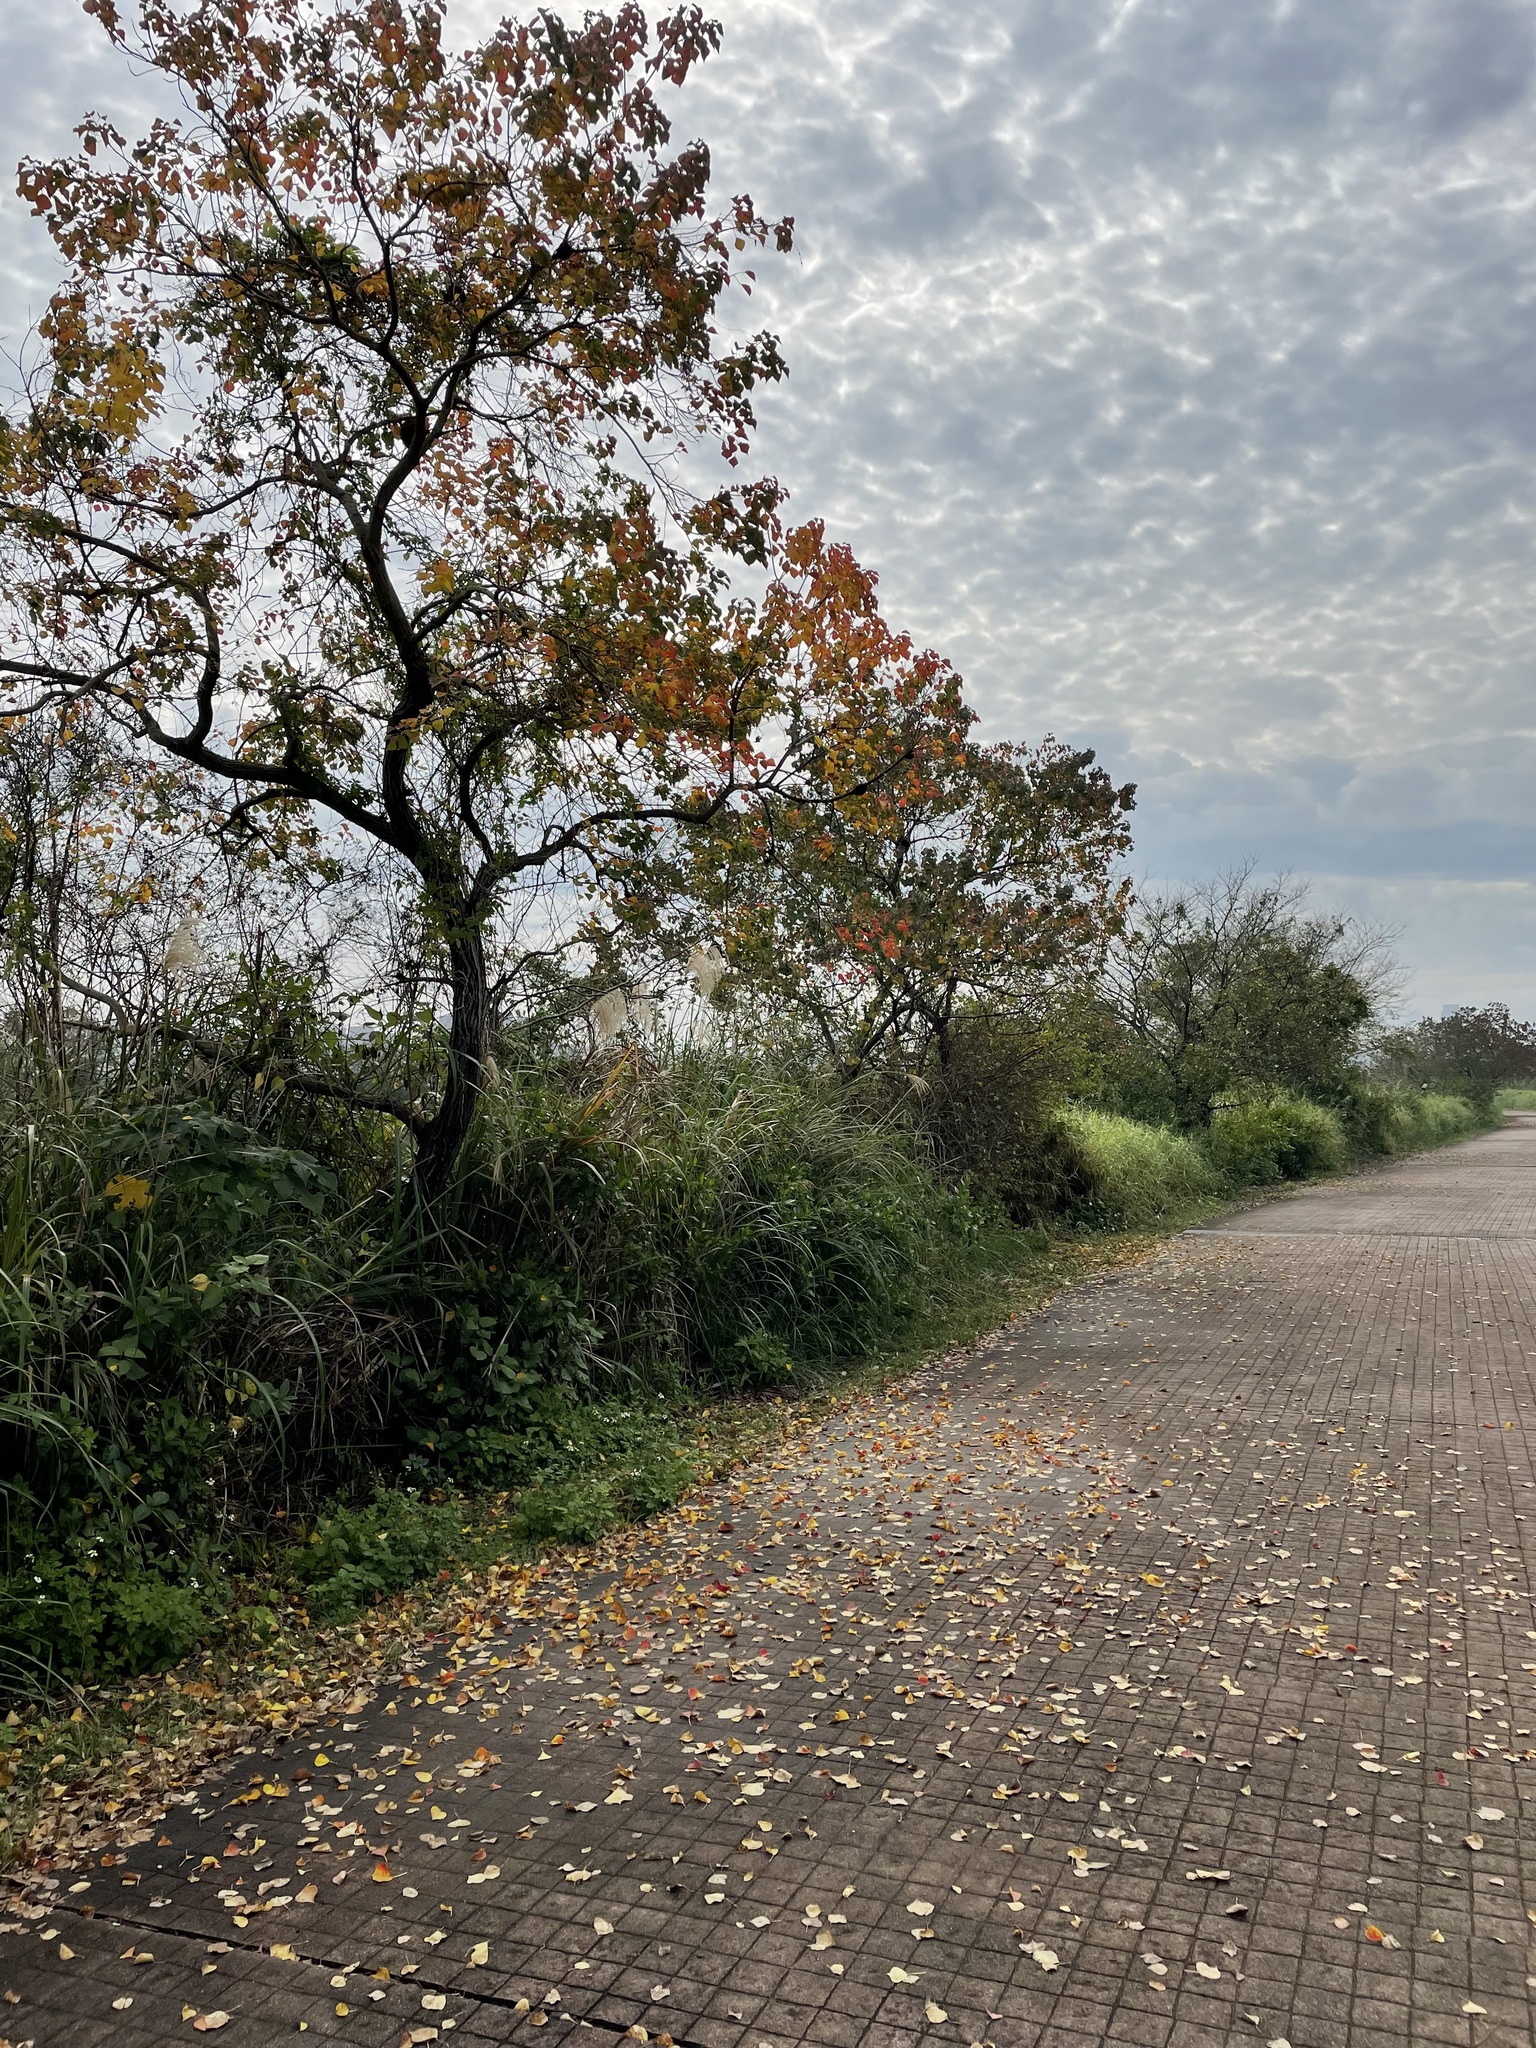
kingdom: Plantae
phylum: Tracheophyta
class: Magnoliopsida
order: Malpighiales
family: Euphorbiaceae
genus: Triadica
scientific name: Triadica sebifera
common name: Chinese tallow
